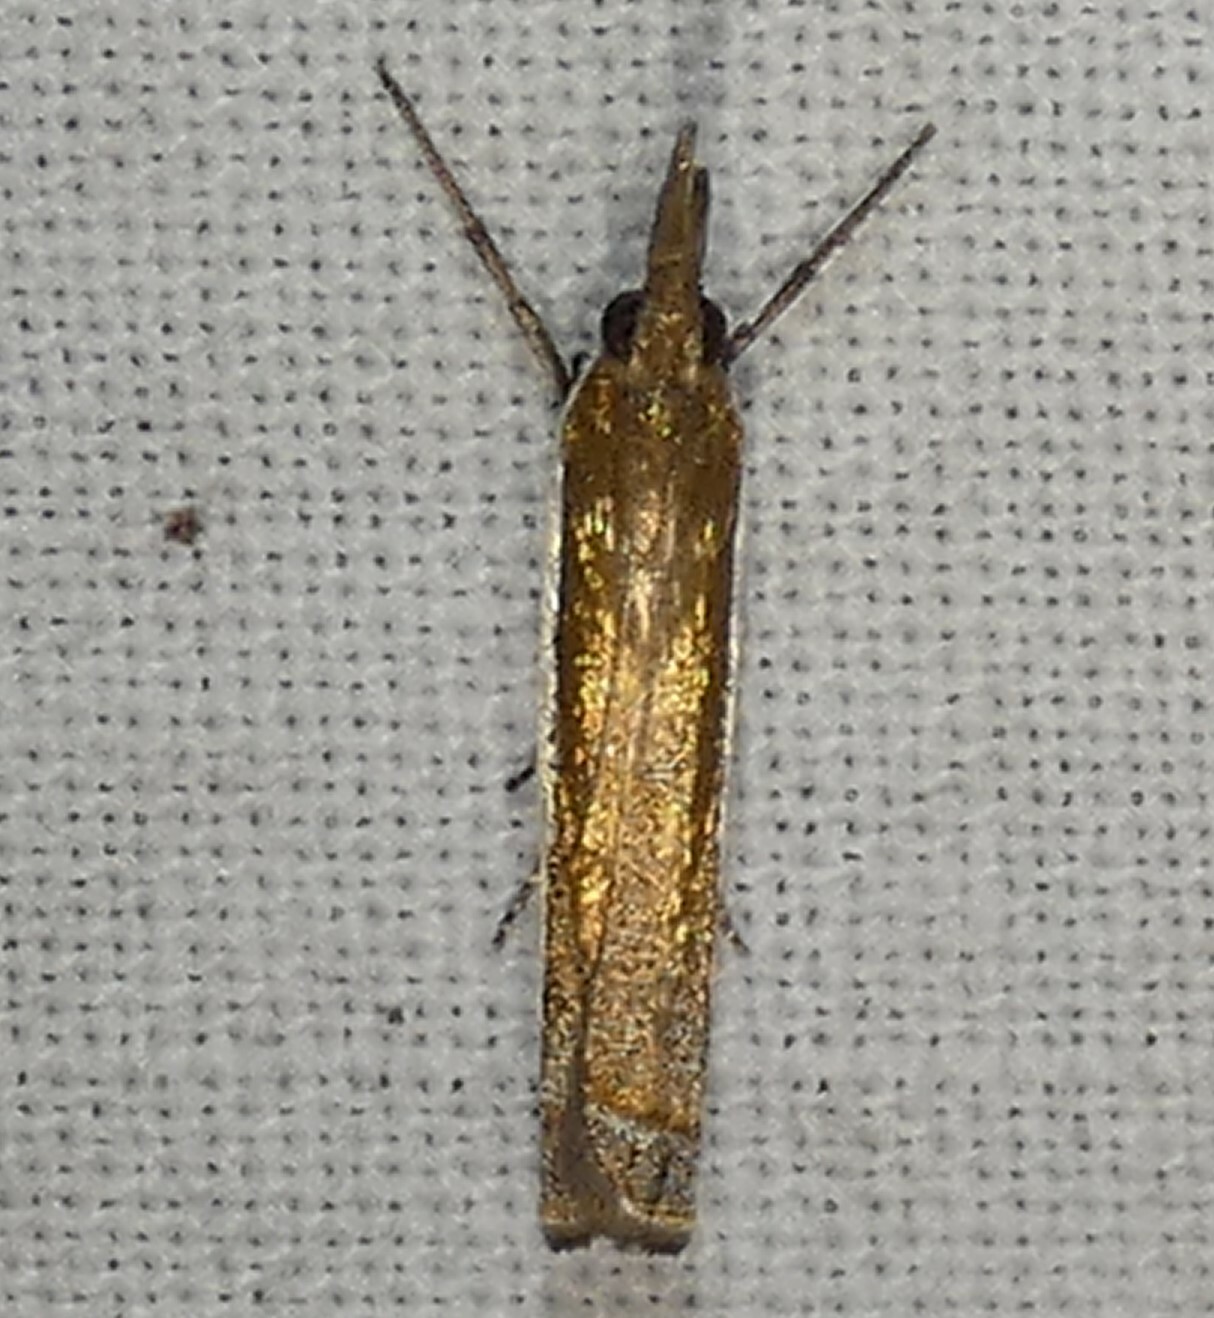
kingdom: Animalia
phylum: Arthropoda
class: Insecta
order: Lepidoptera
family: Crambidae
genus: Crambus
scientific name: Crambus quinquareatus
